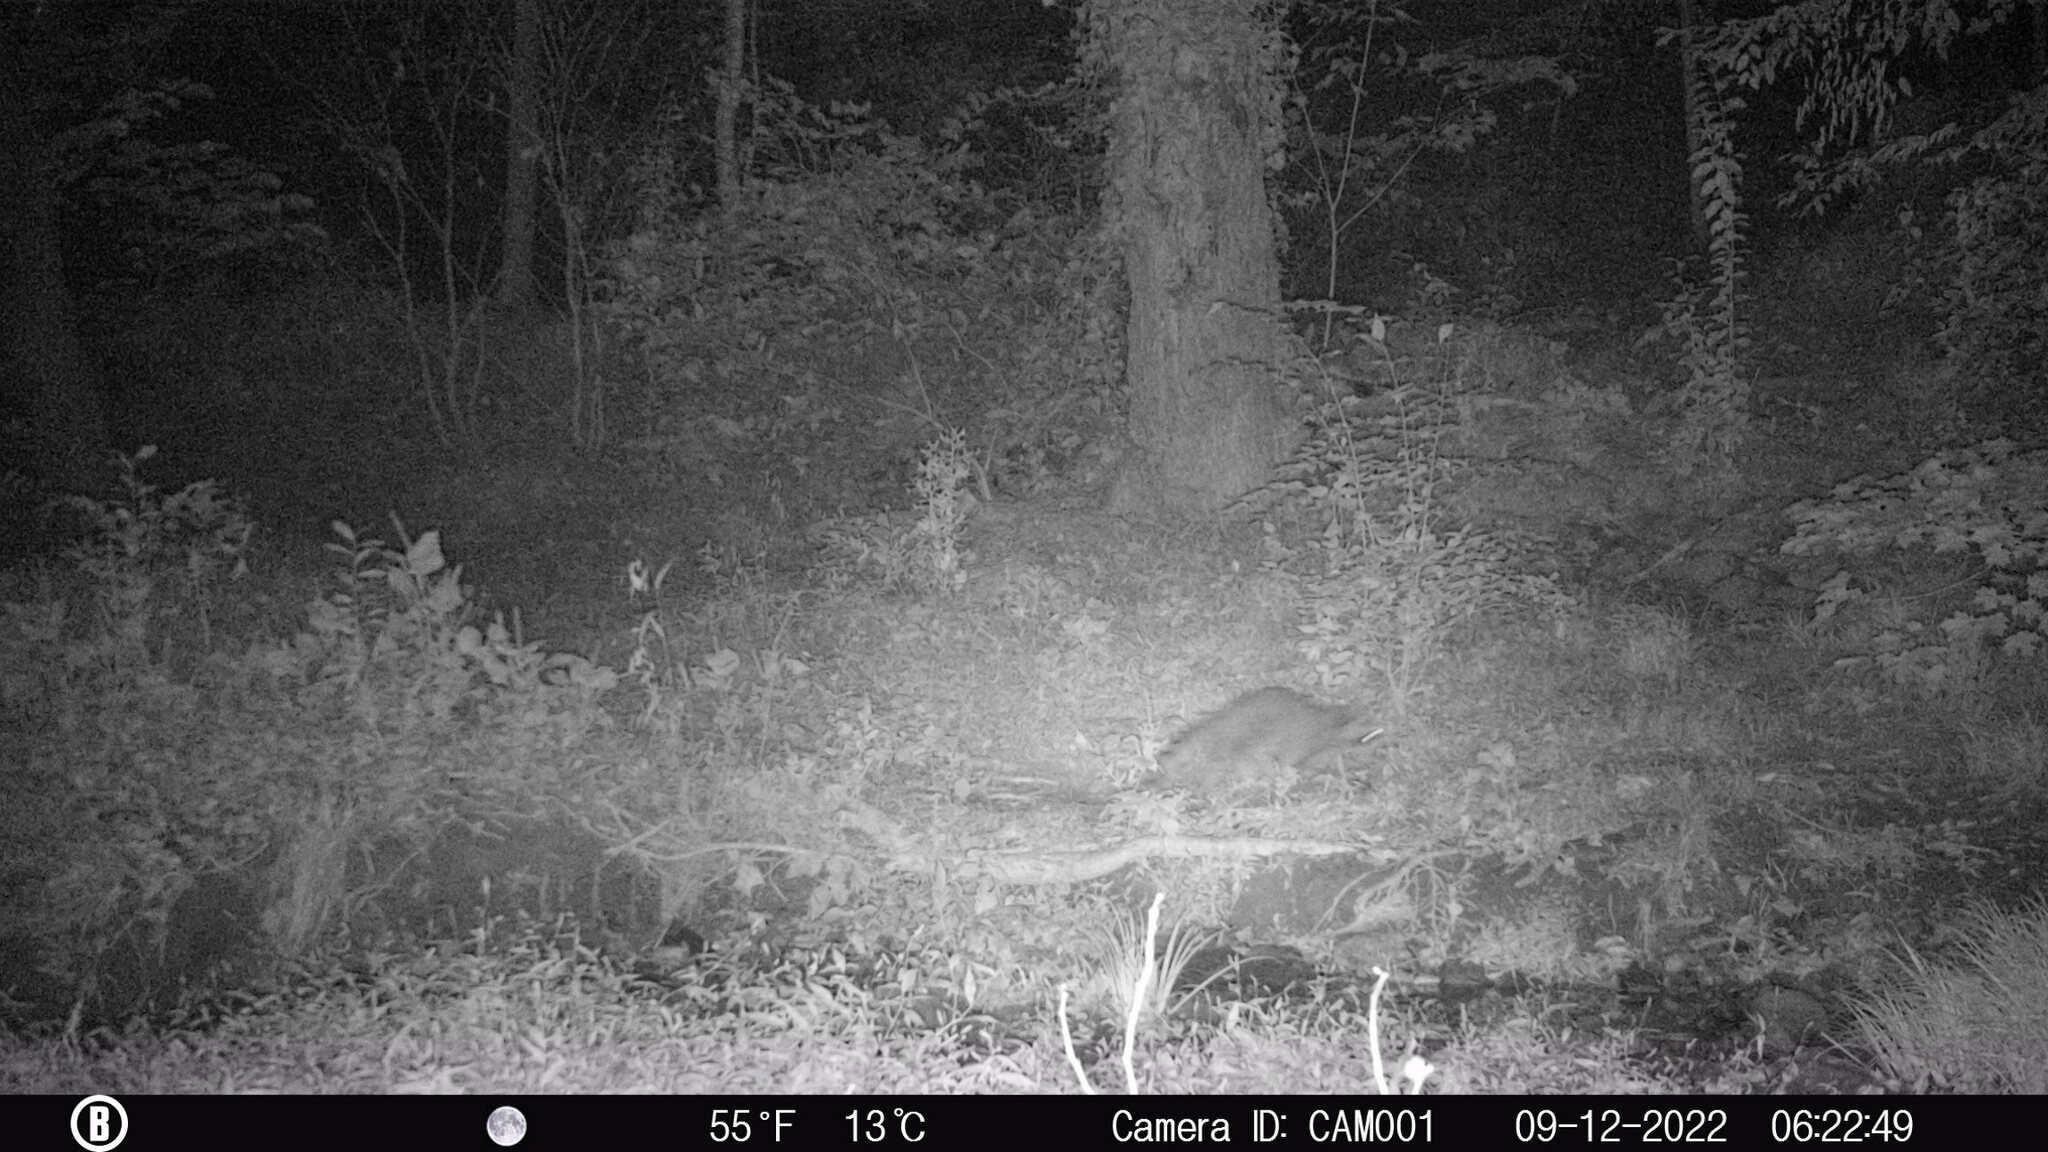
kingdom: Animalia
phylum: Chordata
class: Mammalia
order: Carnivora
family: Procyonidae
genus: Procyon
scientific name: Procyon lotor
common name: Raccoon
